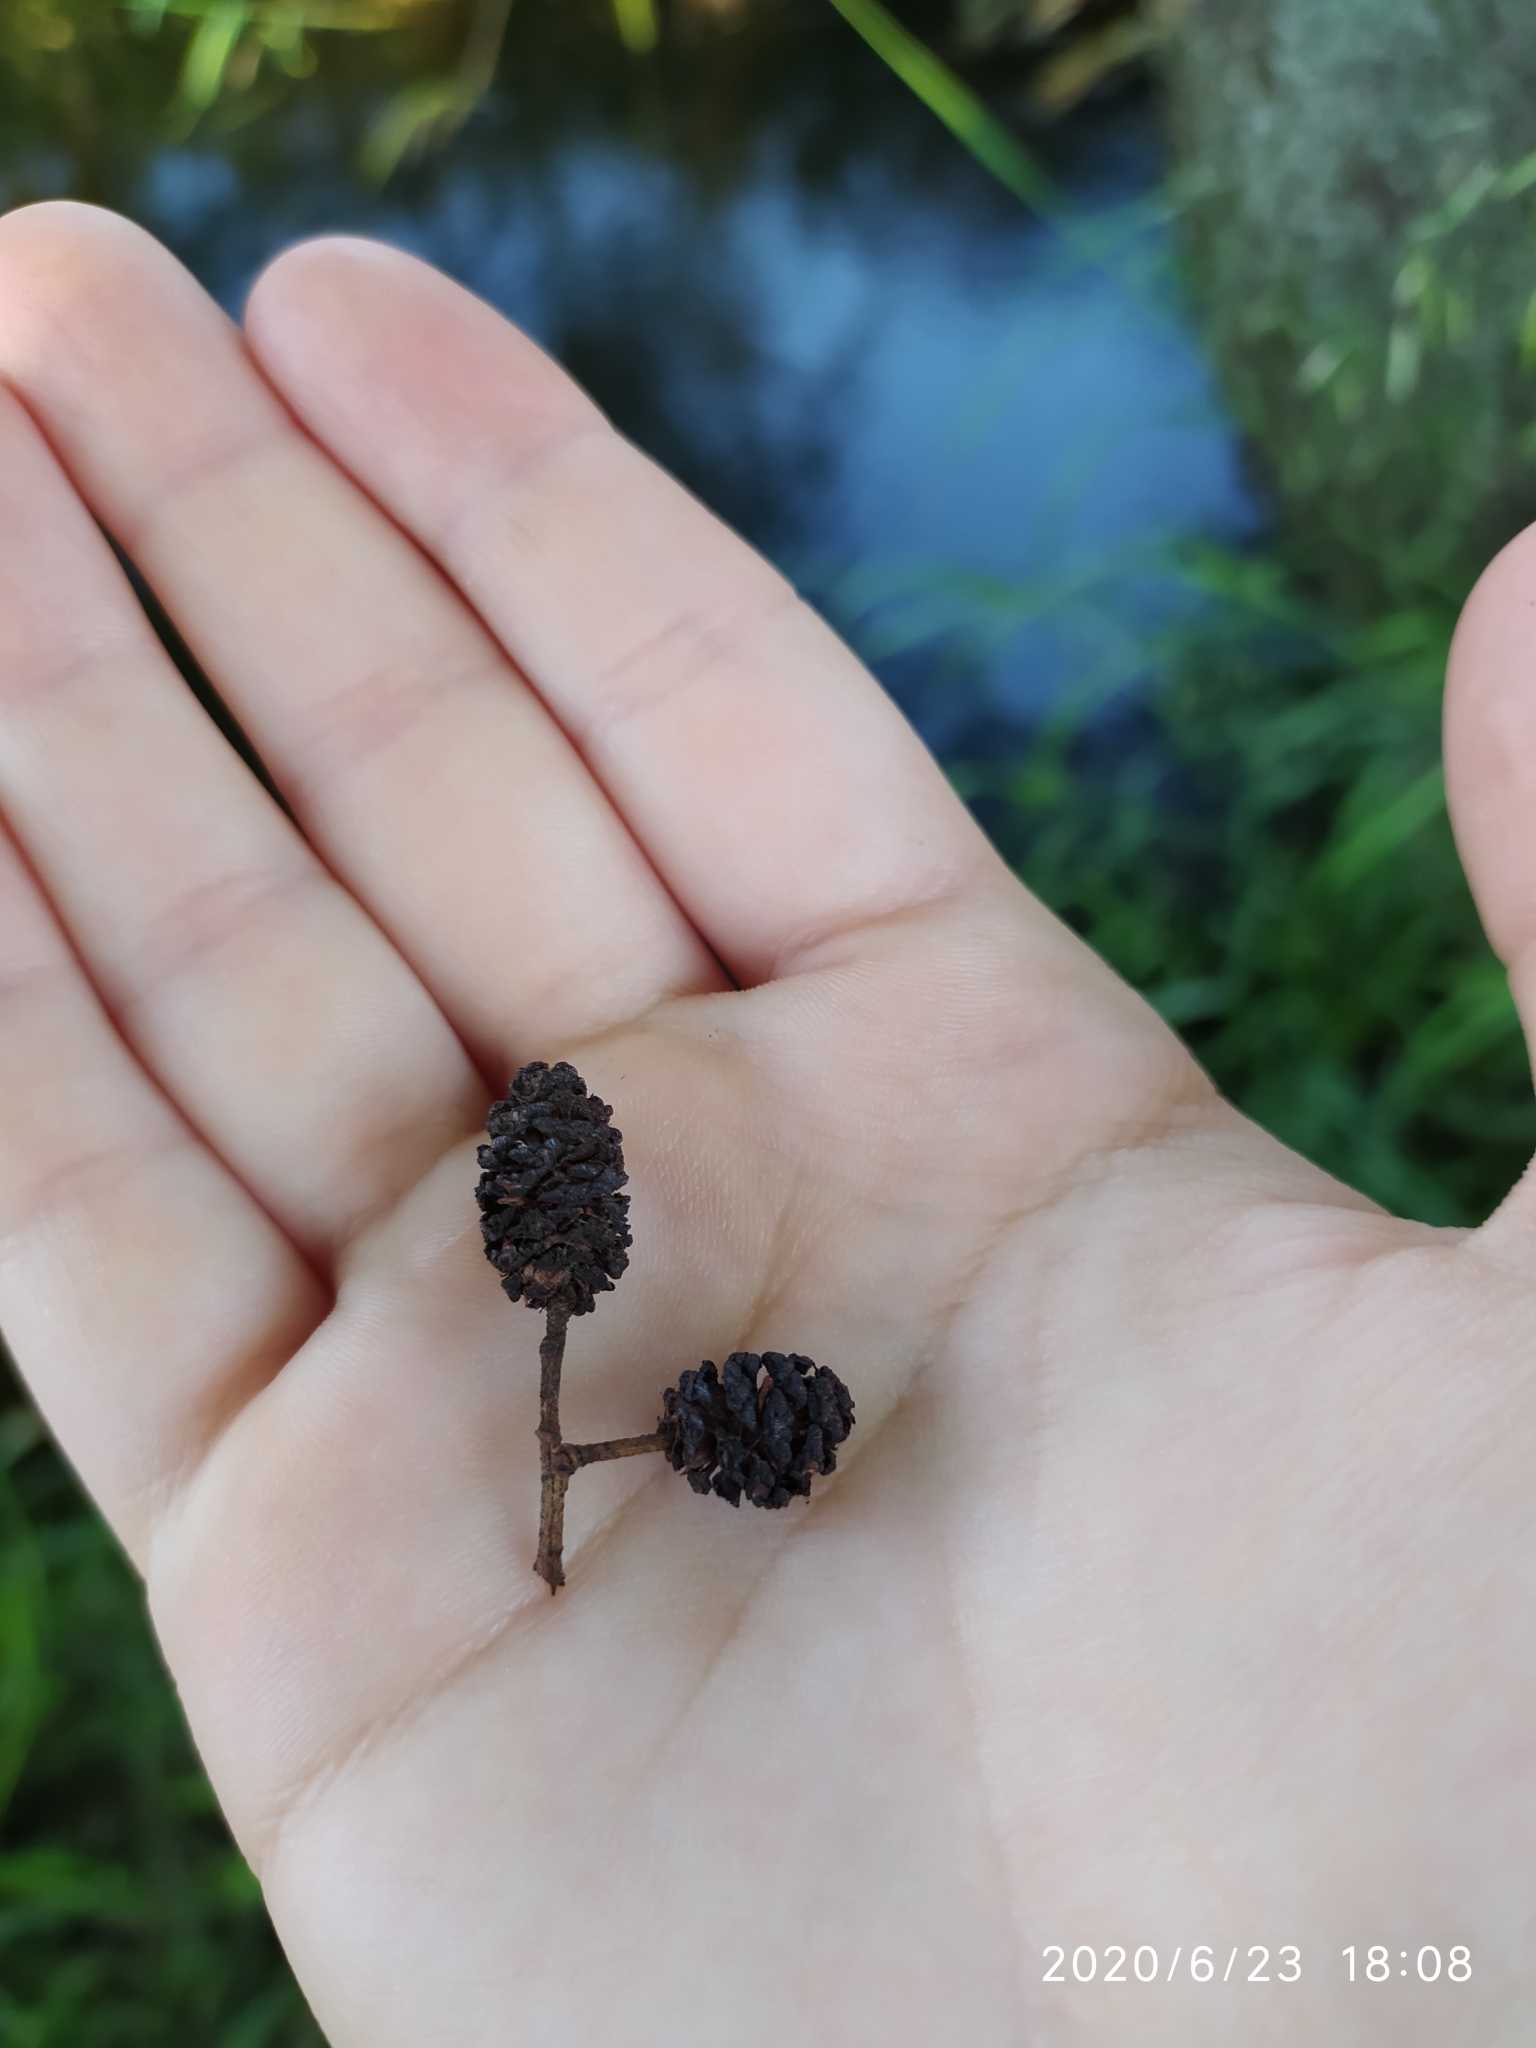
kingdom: Plantae
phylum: Tracheophyta
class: Magnoliopsida
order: Fagales
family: Betulaceae
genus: Alnus
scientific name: Alnus glutinosa
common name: Black alder
